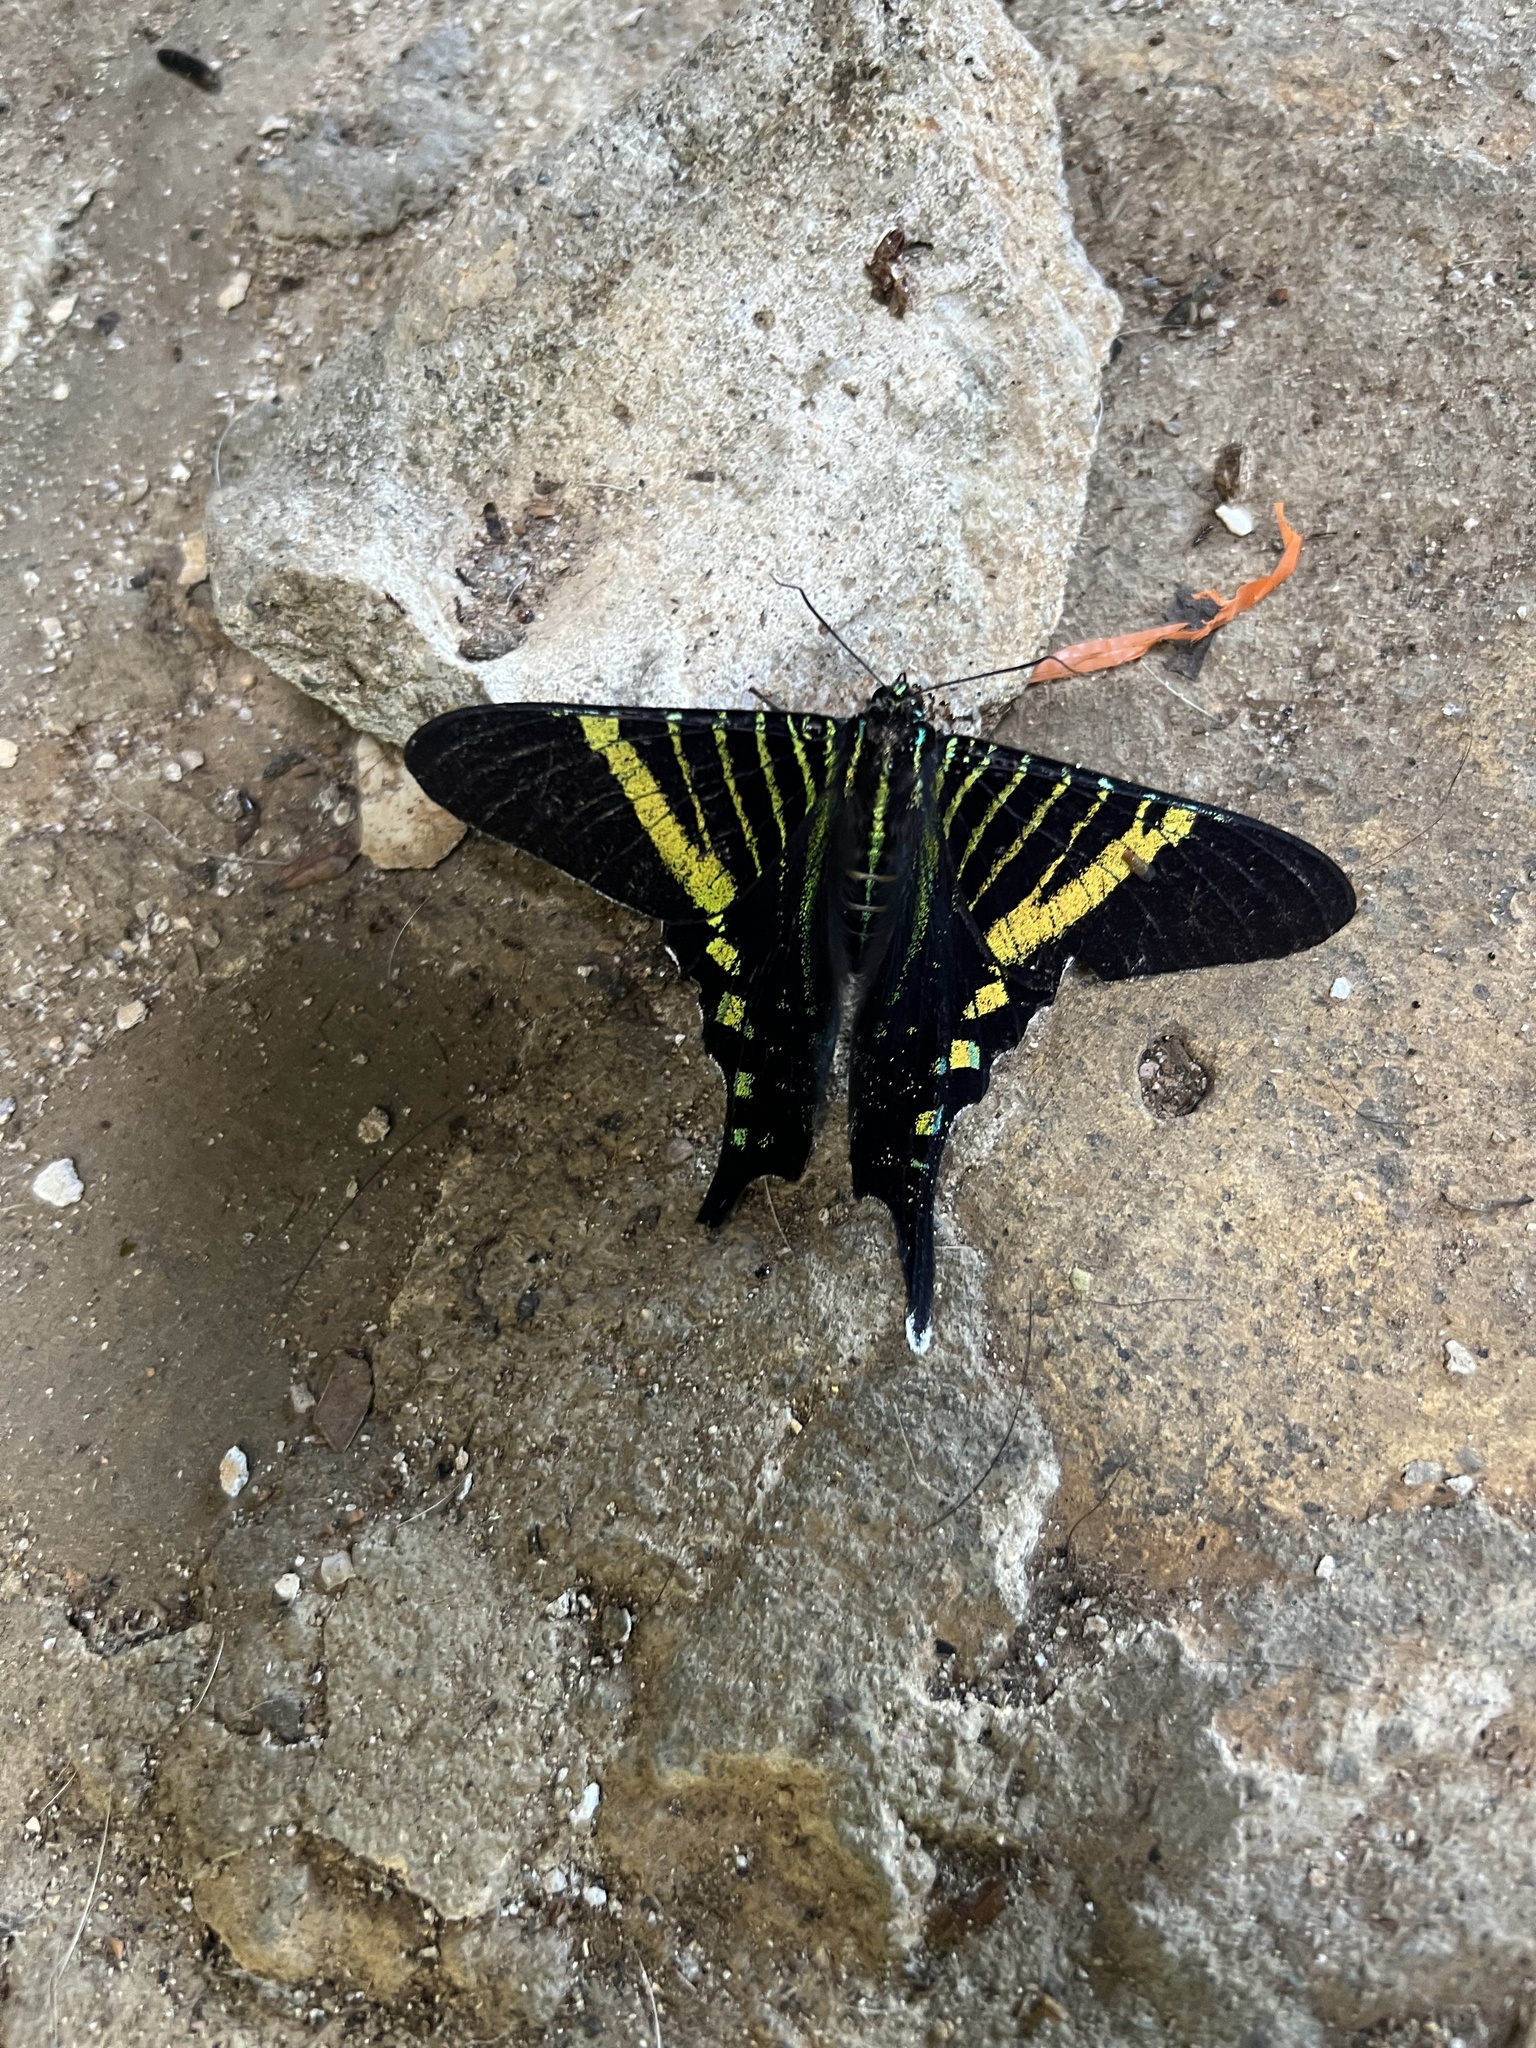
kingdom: Animalia
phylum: Arthropoda
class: Insecta
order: Lepidoptera
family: Uraniidae
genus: Urania
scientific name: Urania fulgens
